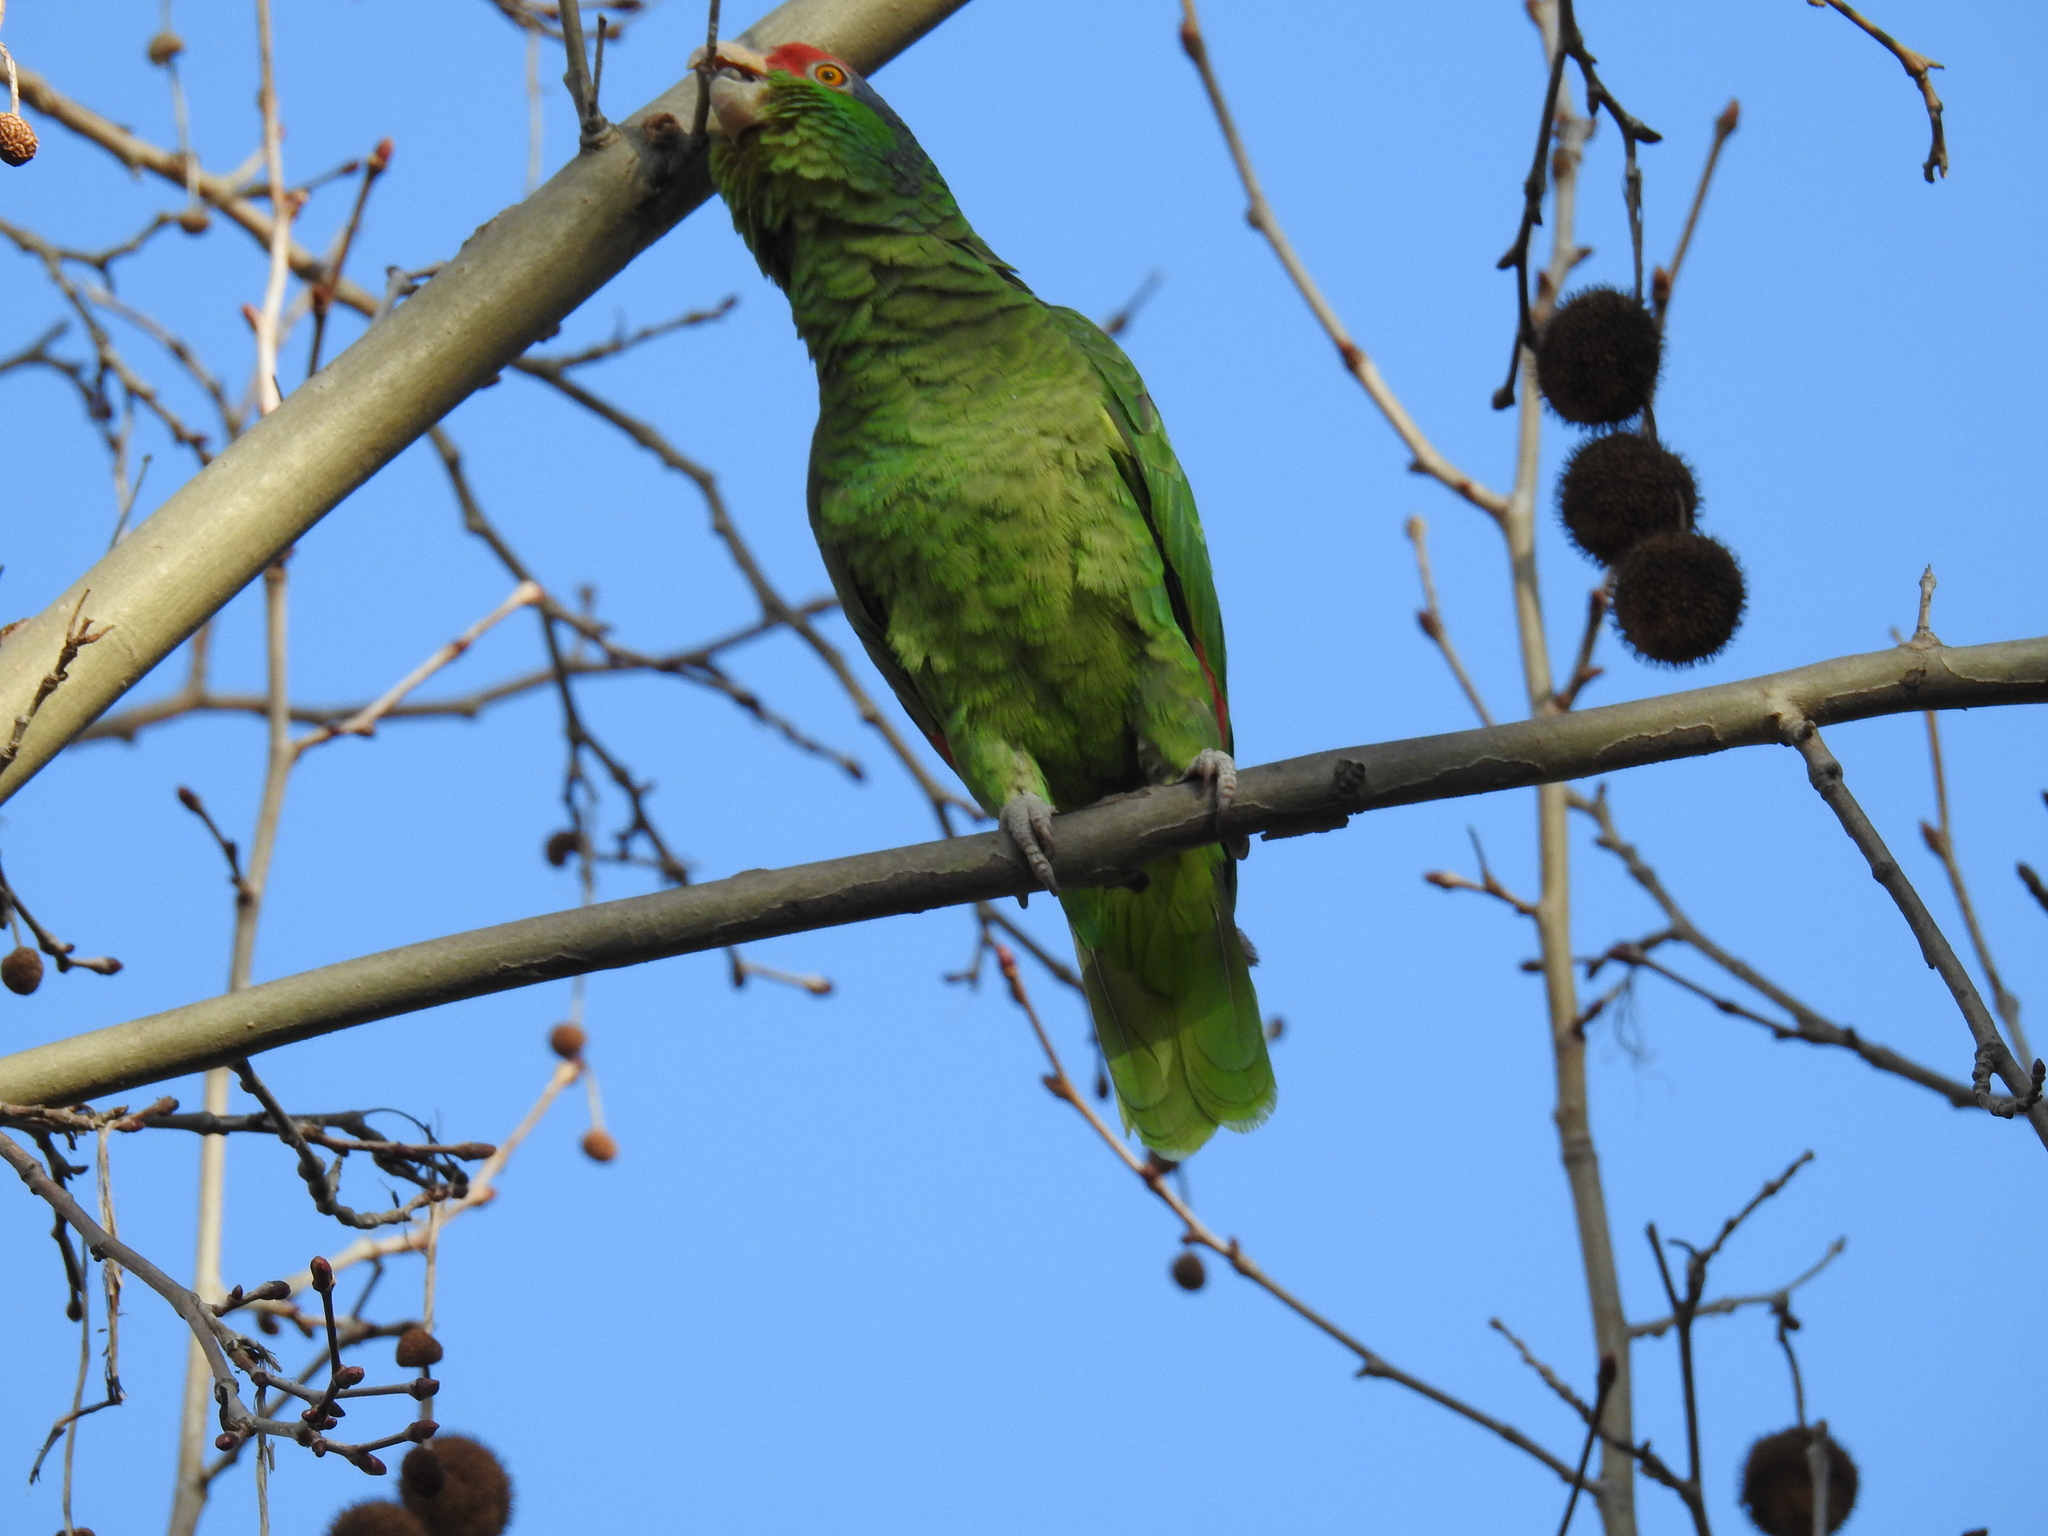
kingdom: Animalia
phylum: Chordata
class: Aves
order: Psittaciformes
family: Psittacidae
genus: Amazona
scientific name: Amazona viridigenalis
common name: Red-crowned amazon
